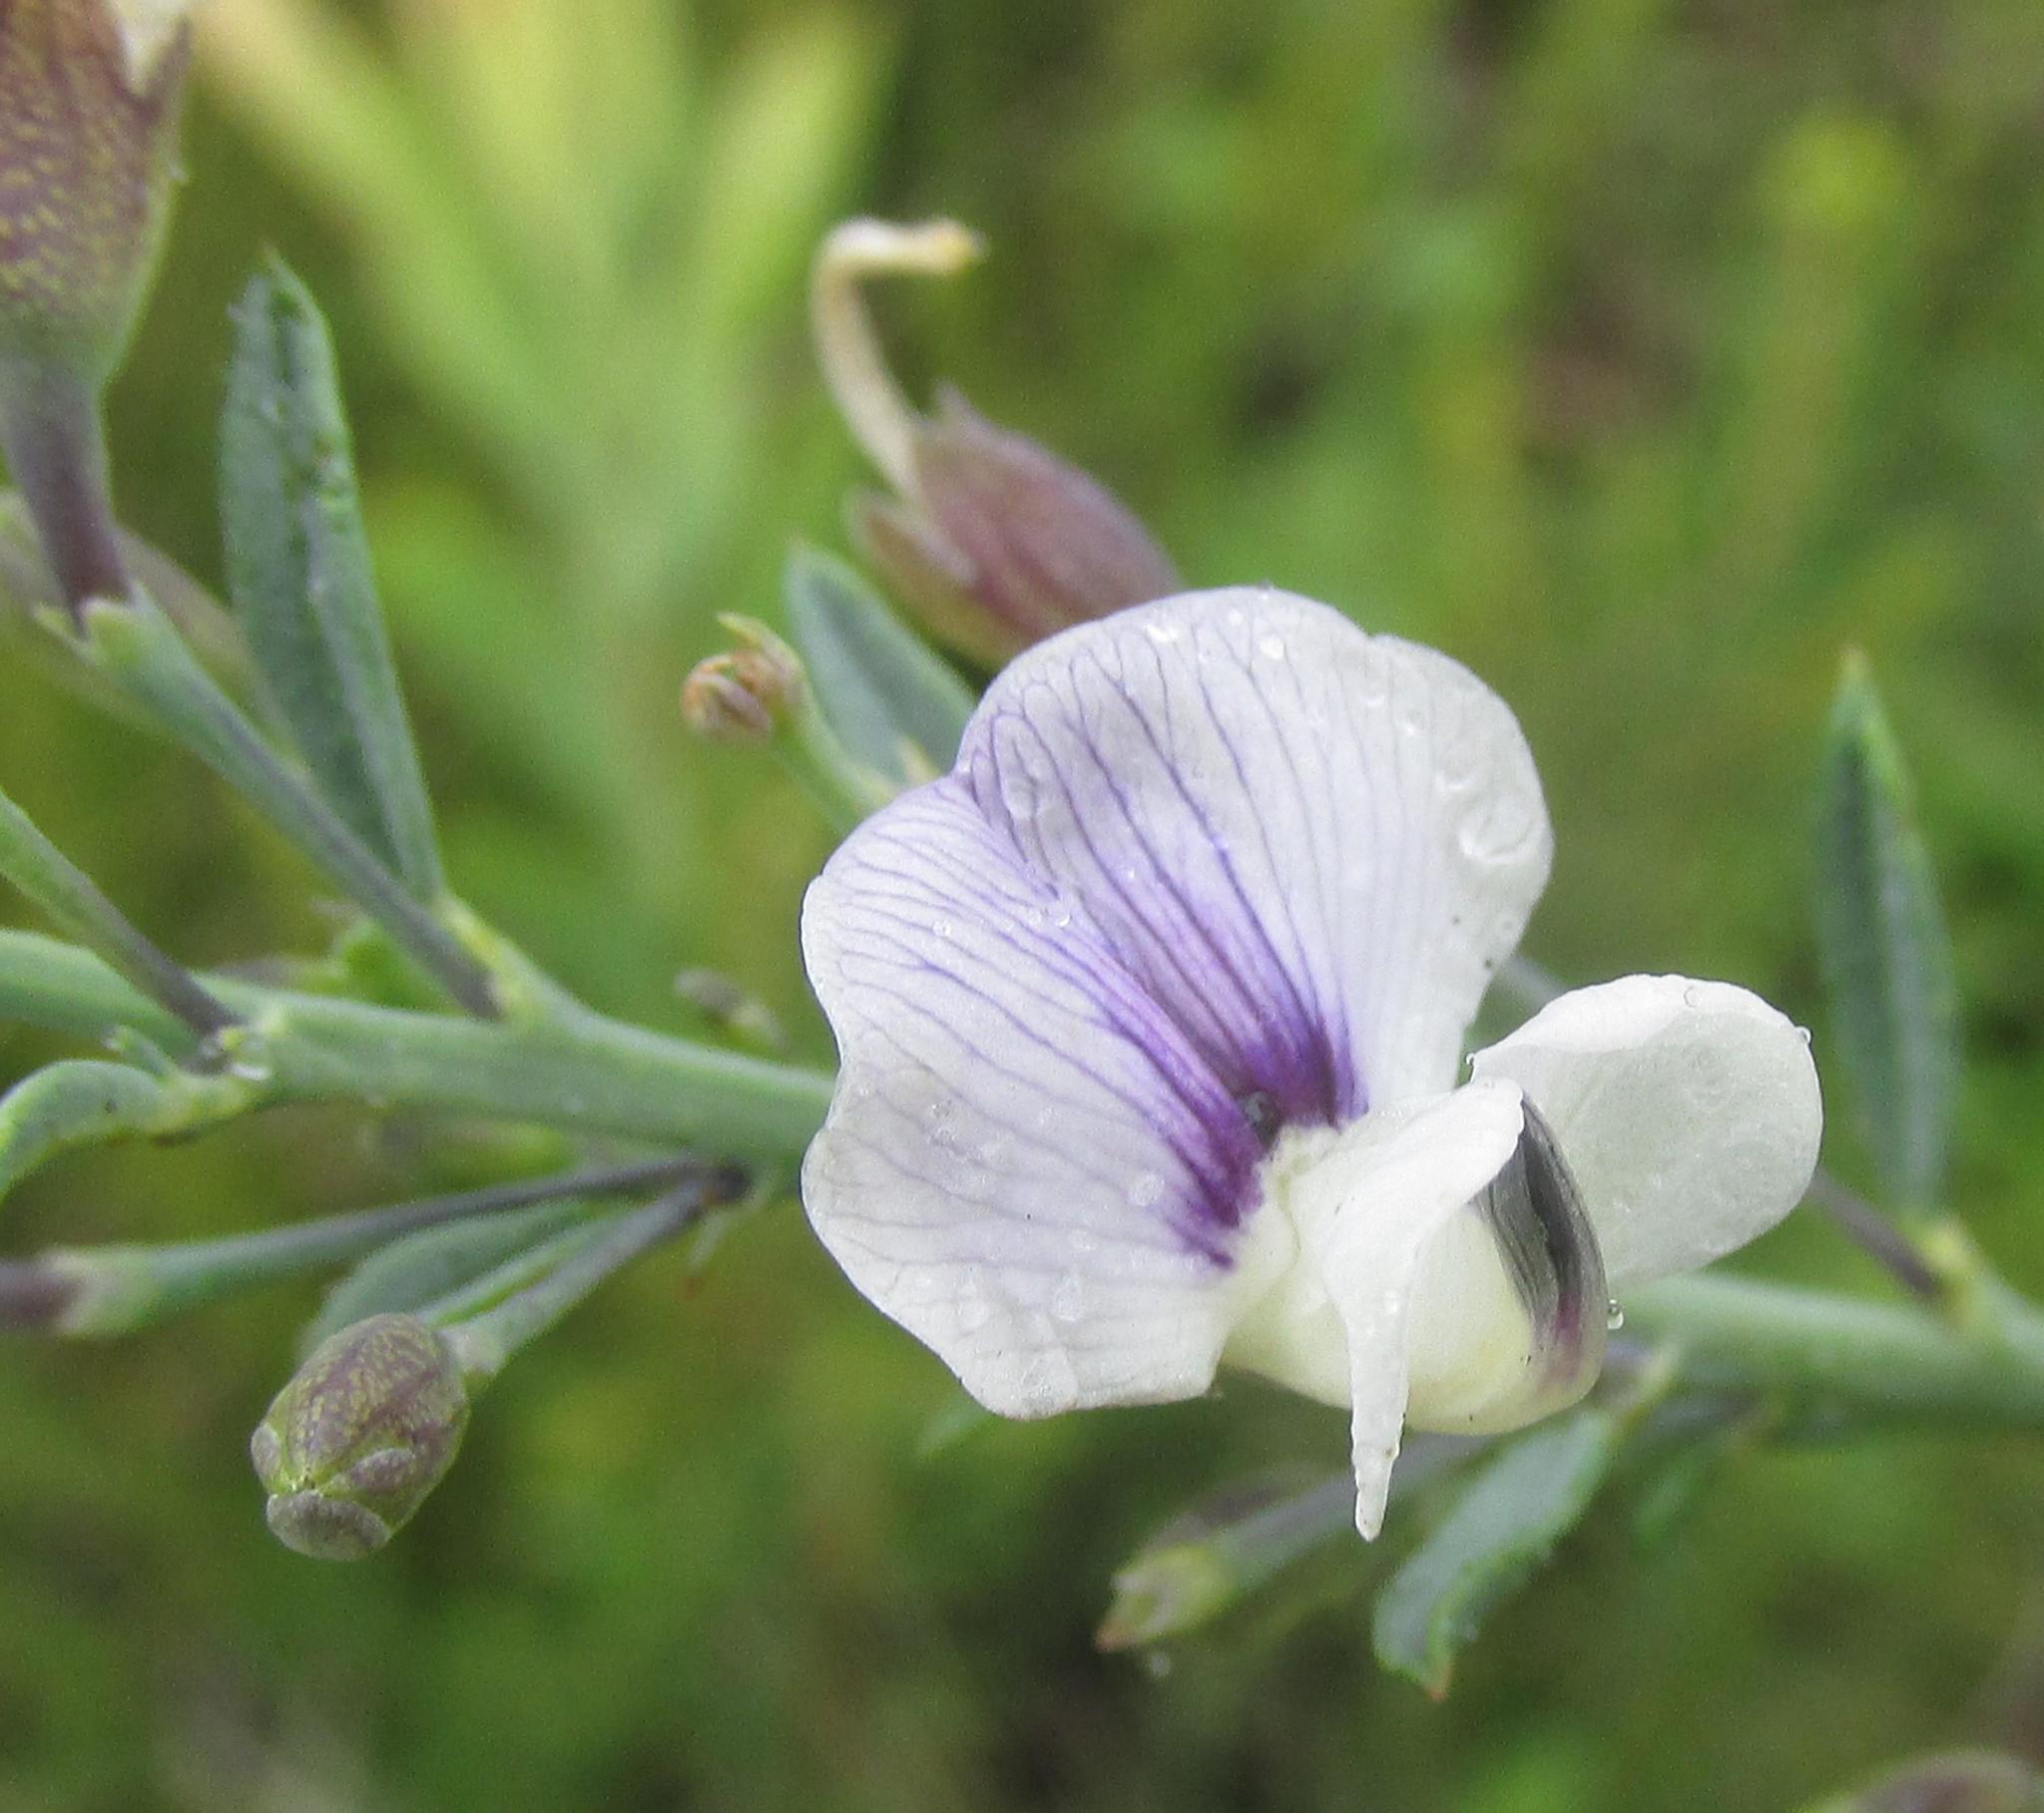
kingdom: Plantae
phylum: Tracheophyta
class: Magnoliopsida
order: Fabales
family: Fabaceae
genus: Psoralea
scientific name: Psoralea axillaris
